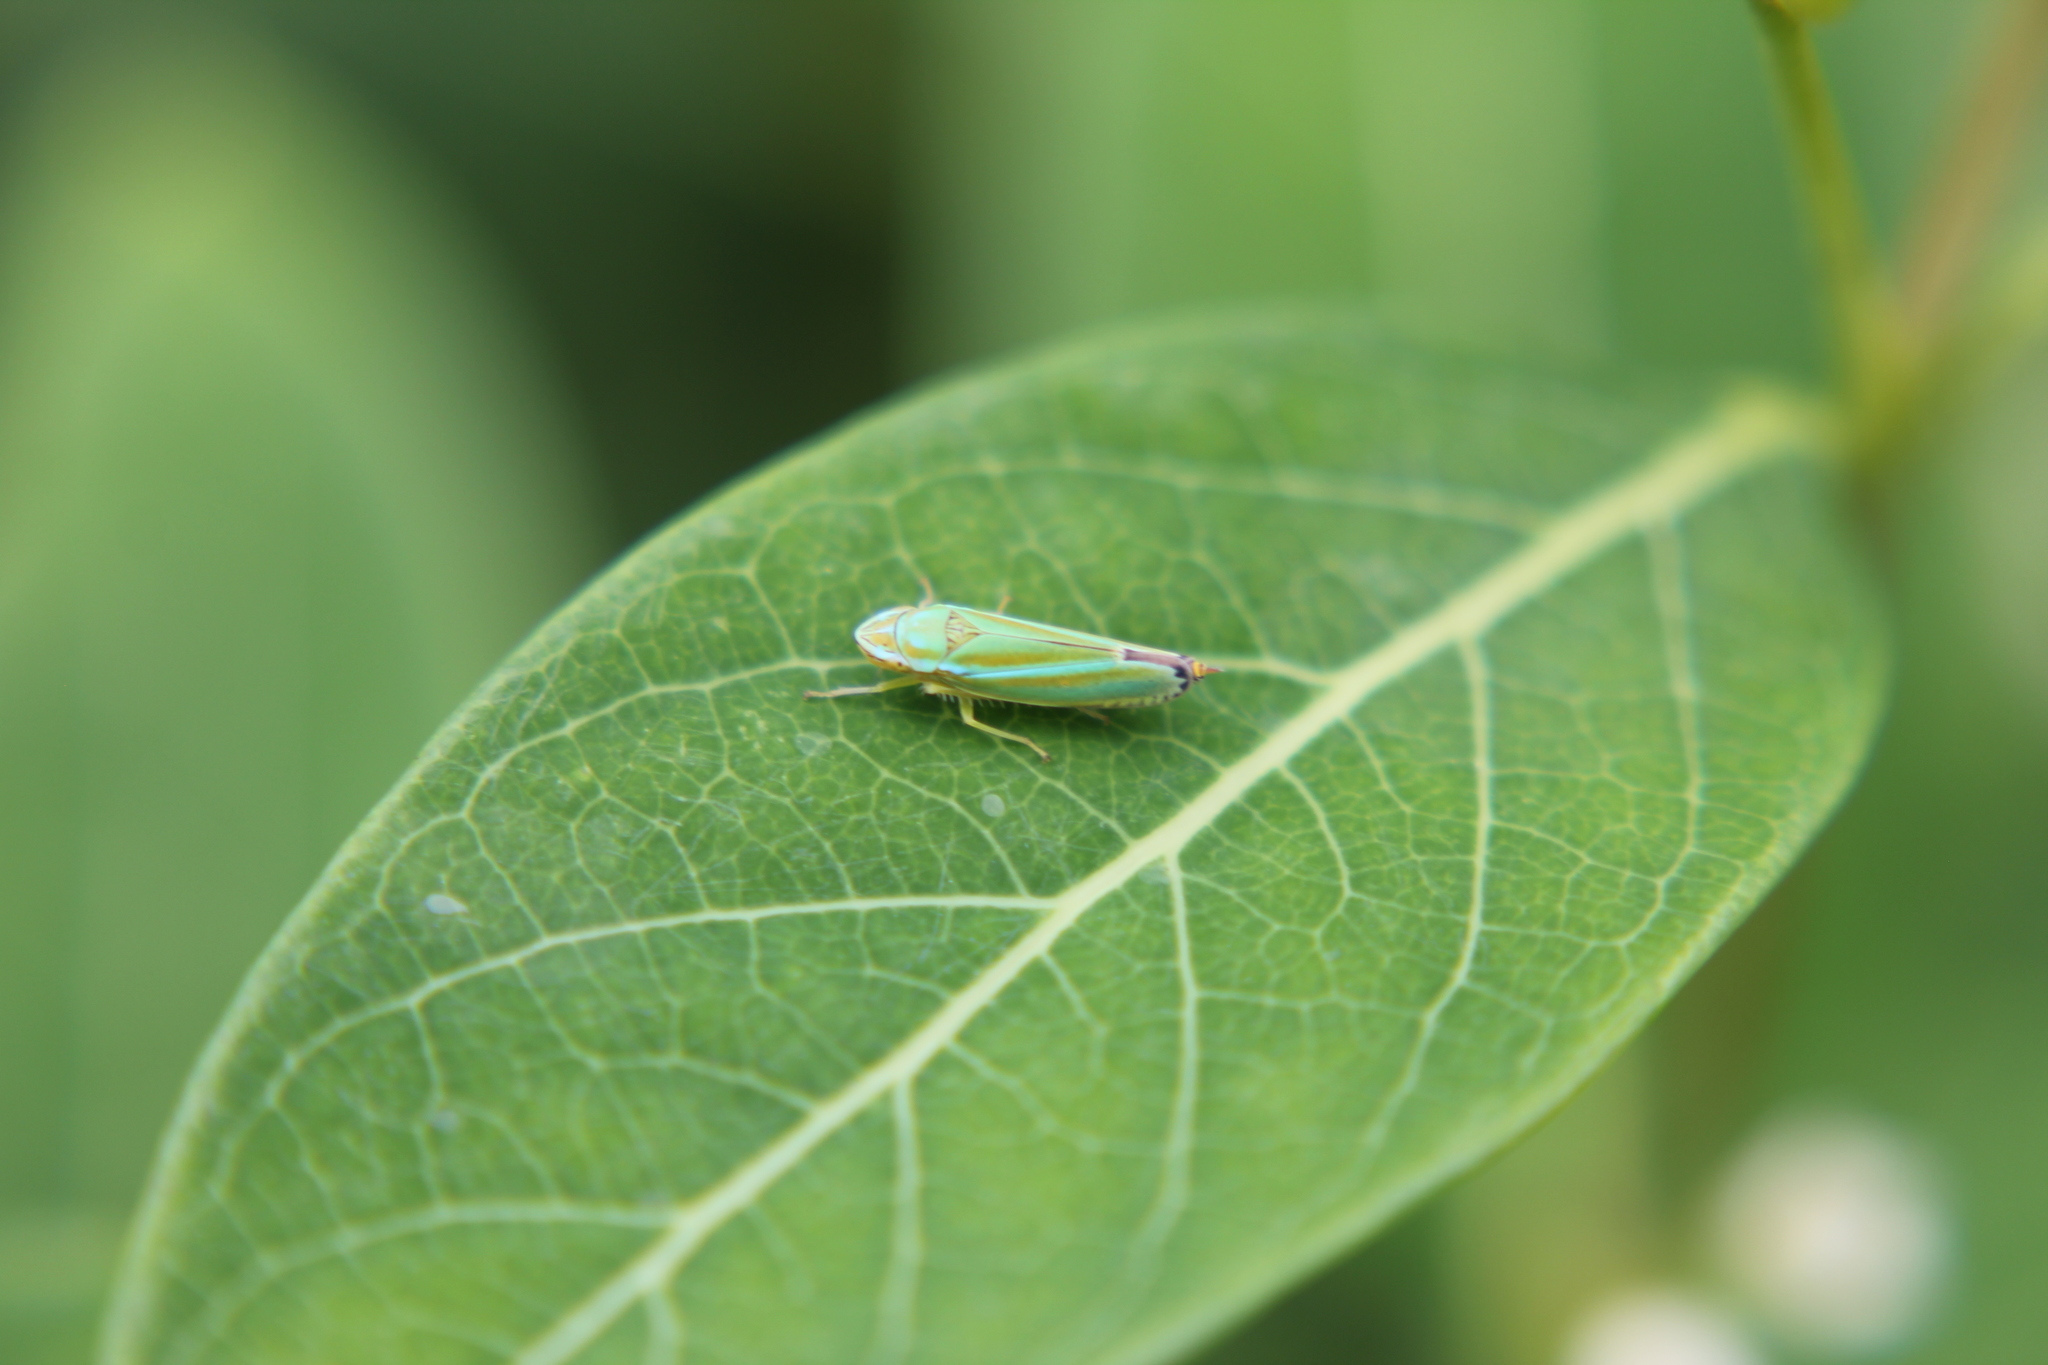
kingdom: Animalia
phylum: Arthropoda
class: Insecta
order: Hemiptera
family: Cicadellidae
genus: Graphocephala
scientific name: Graphocephala versuta
